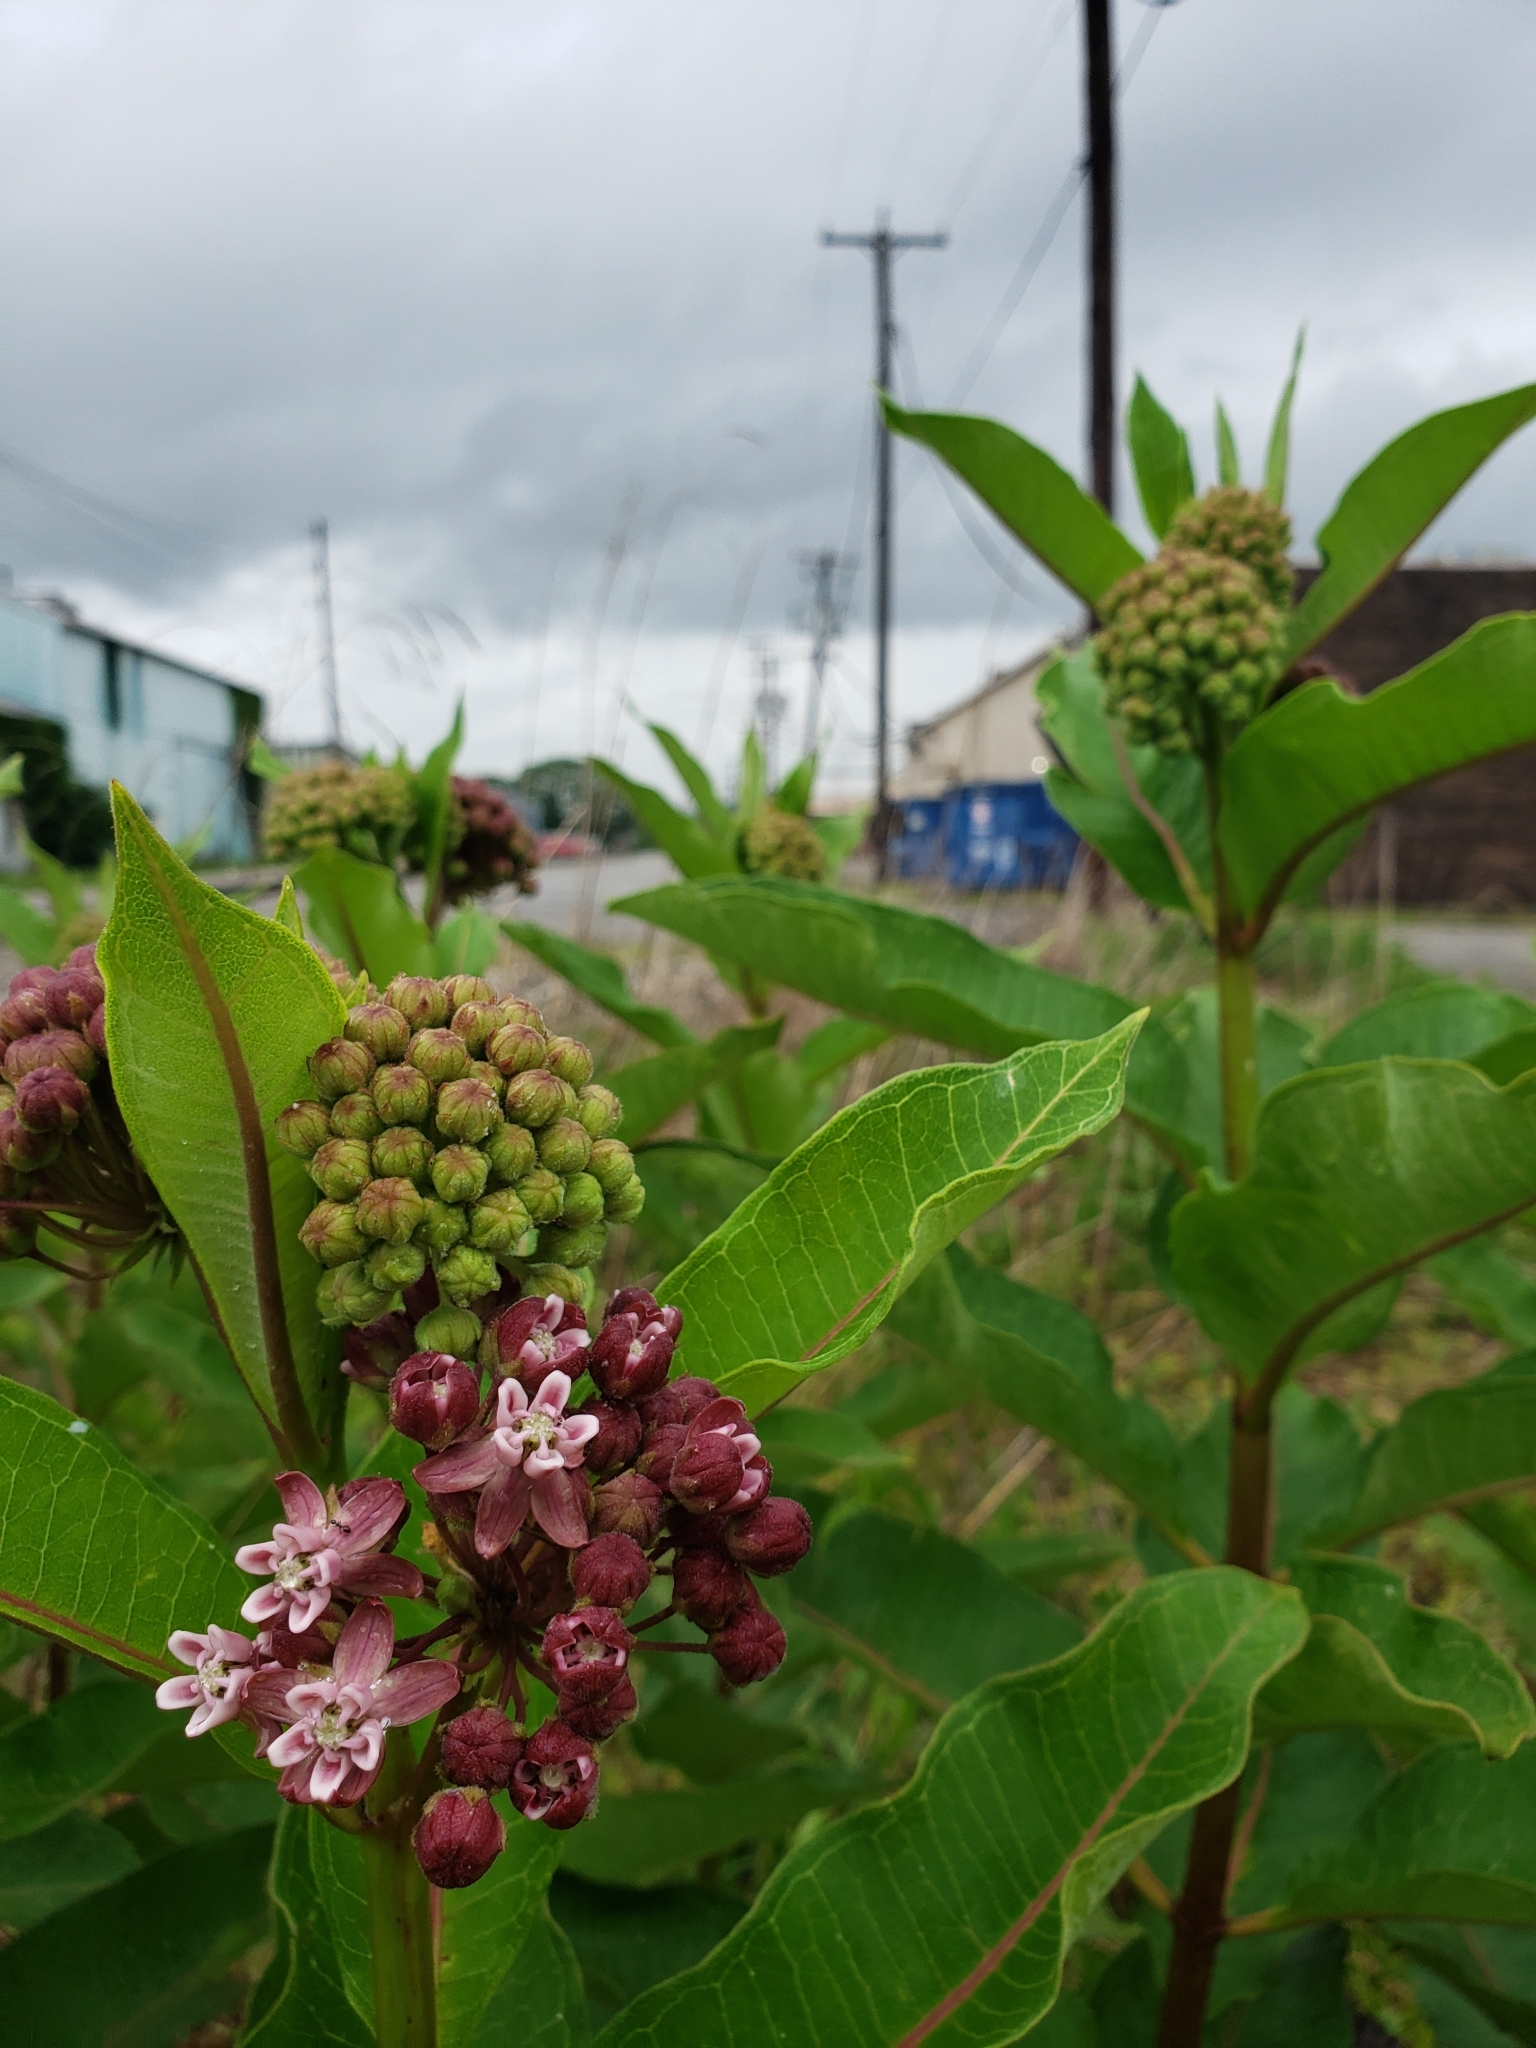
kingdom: Plantae
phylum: Tracheophyta
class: Magnoliopsida
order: Gentianales
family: Apocynaceae
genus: Asclepias
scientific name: Asclepias syriaca
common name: Common milkweed
